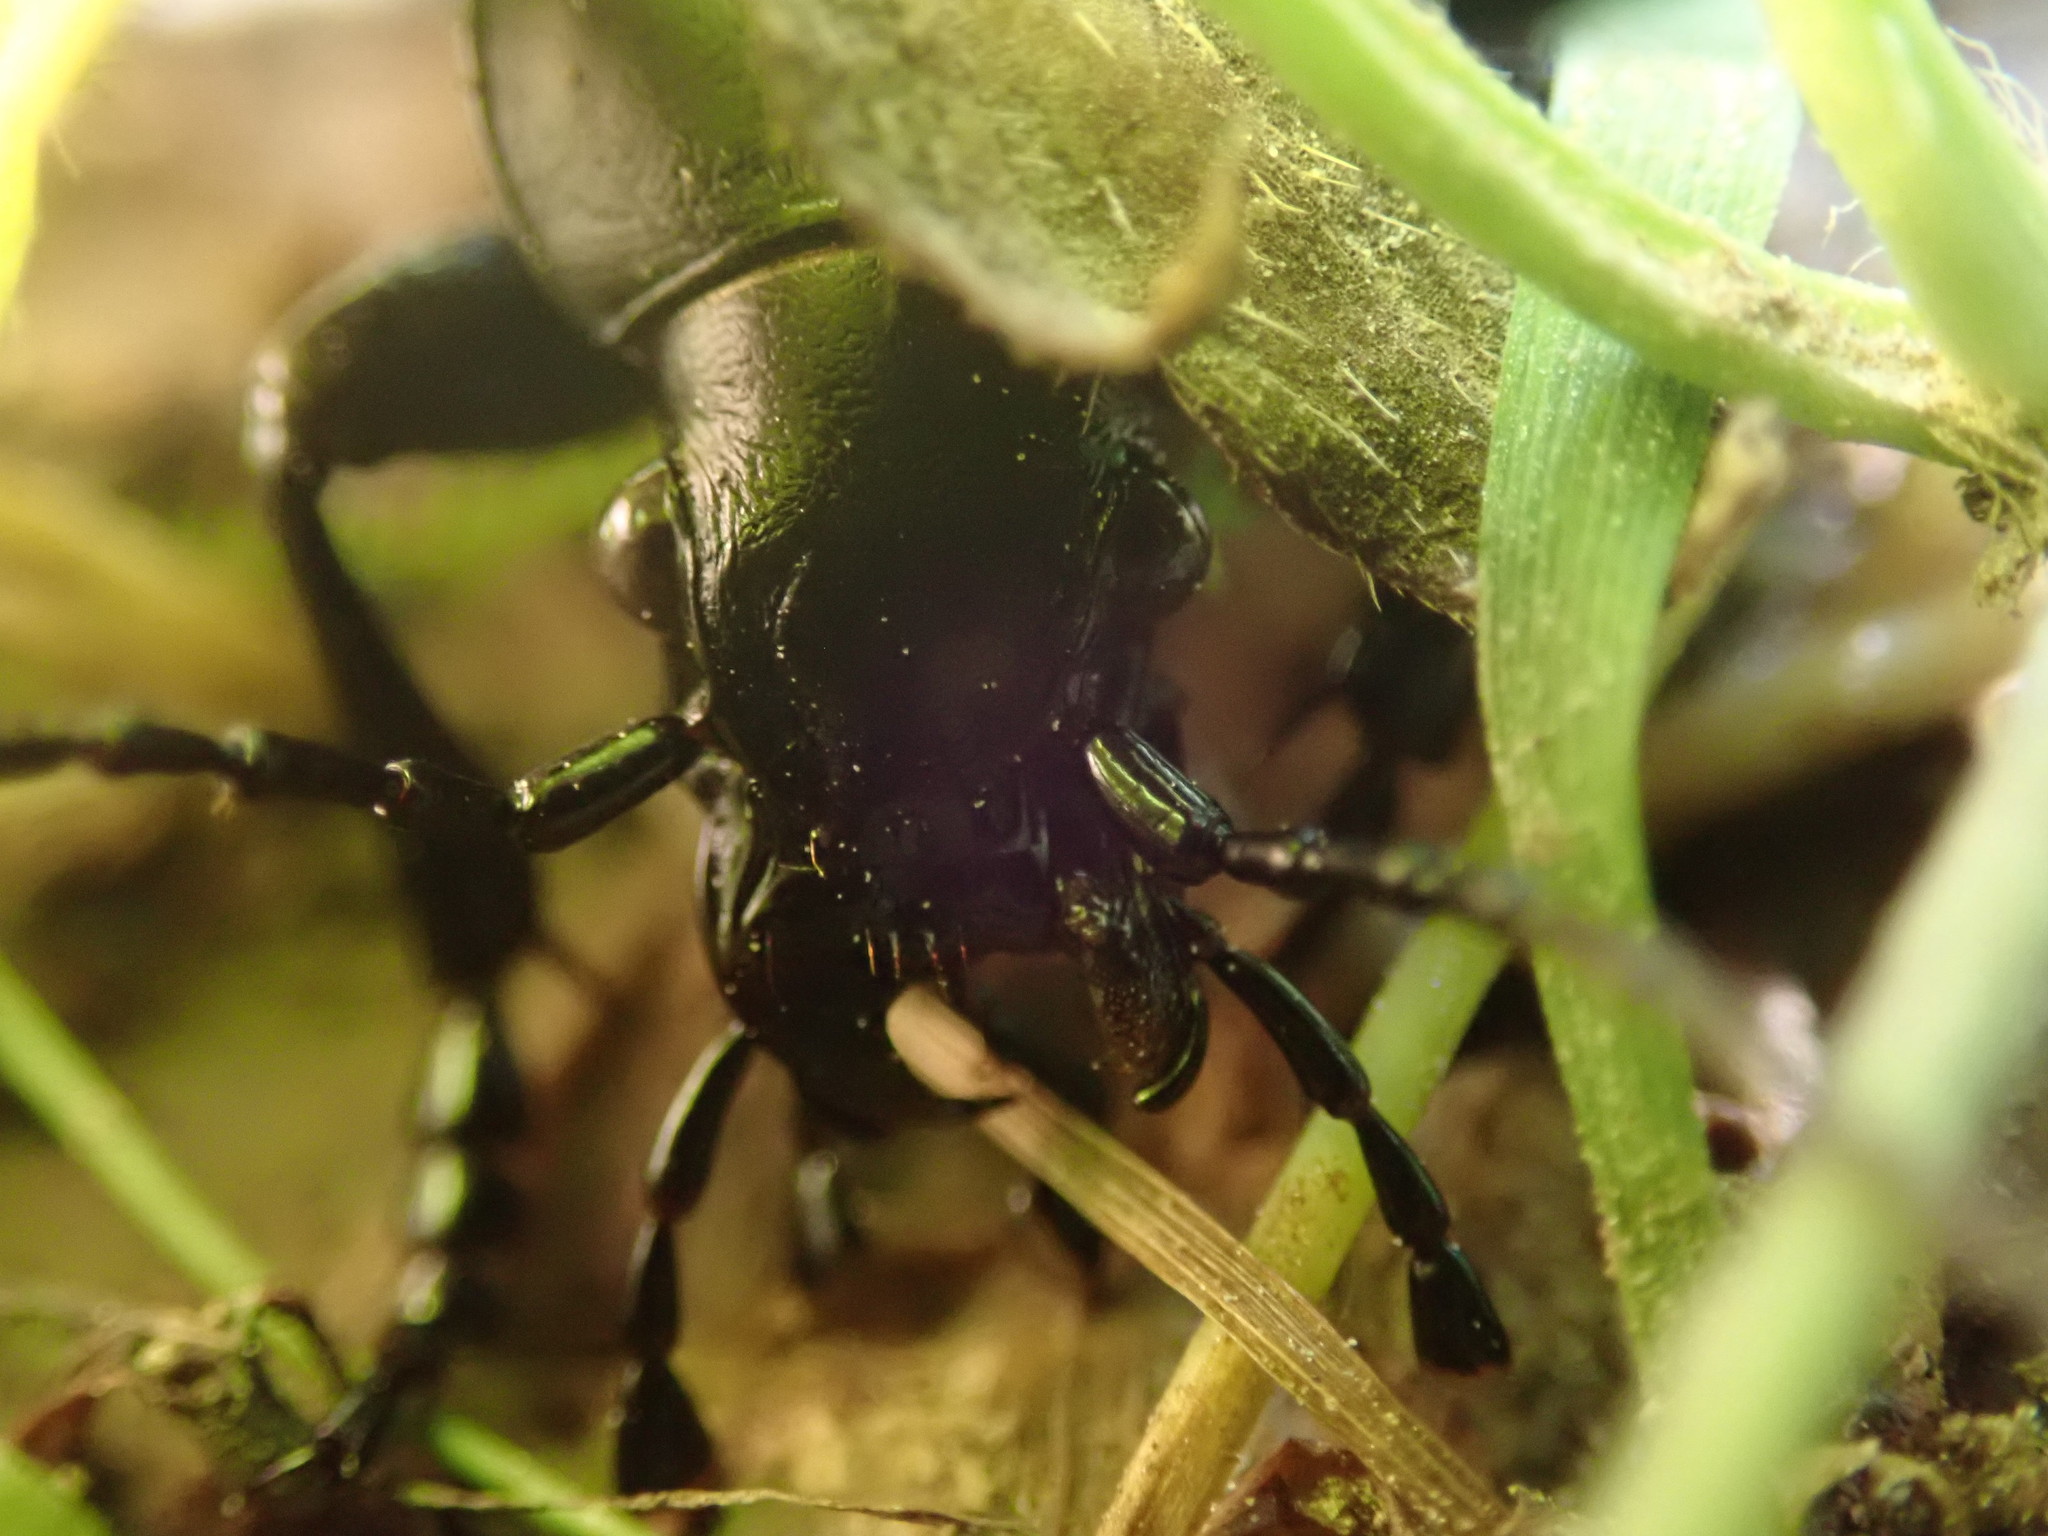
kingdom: Animalia
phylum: Arthropoda
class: Insecta
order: Coleoptera
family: Carabidae
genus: Carabus
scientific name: Carabus coriaceus
